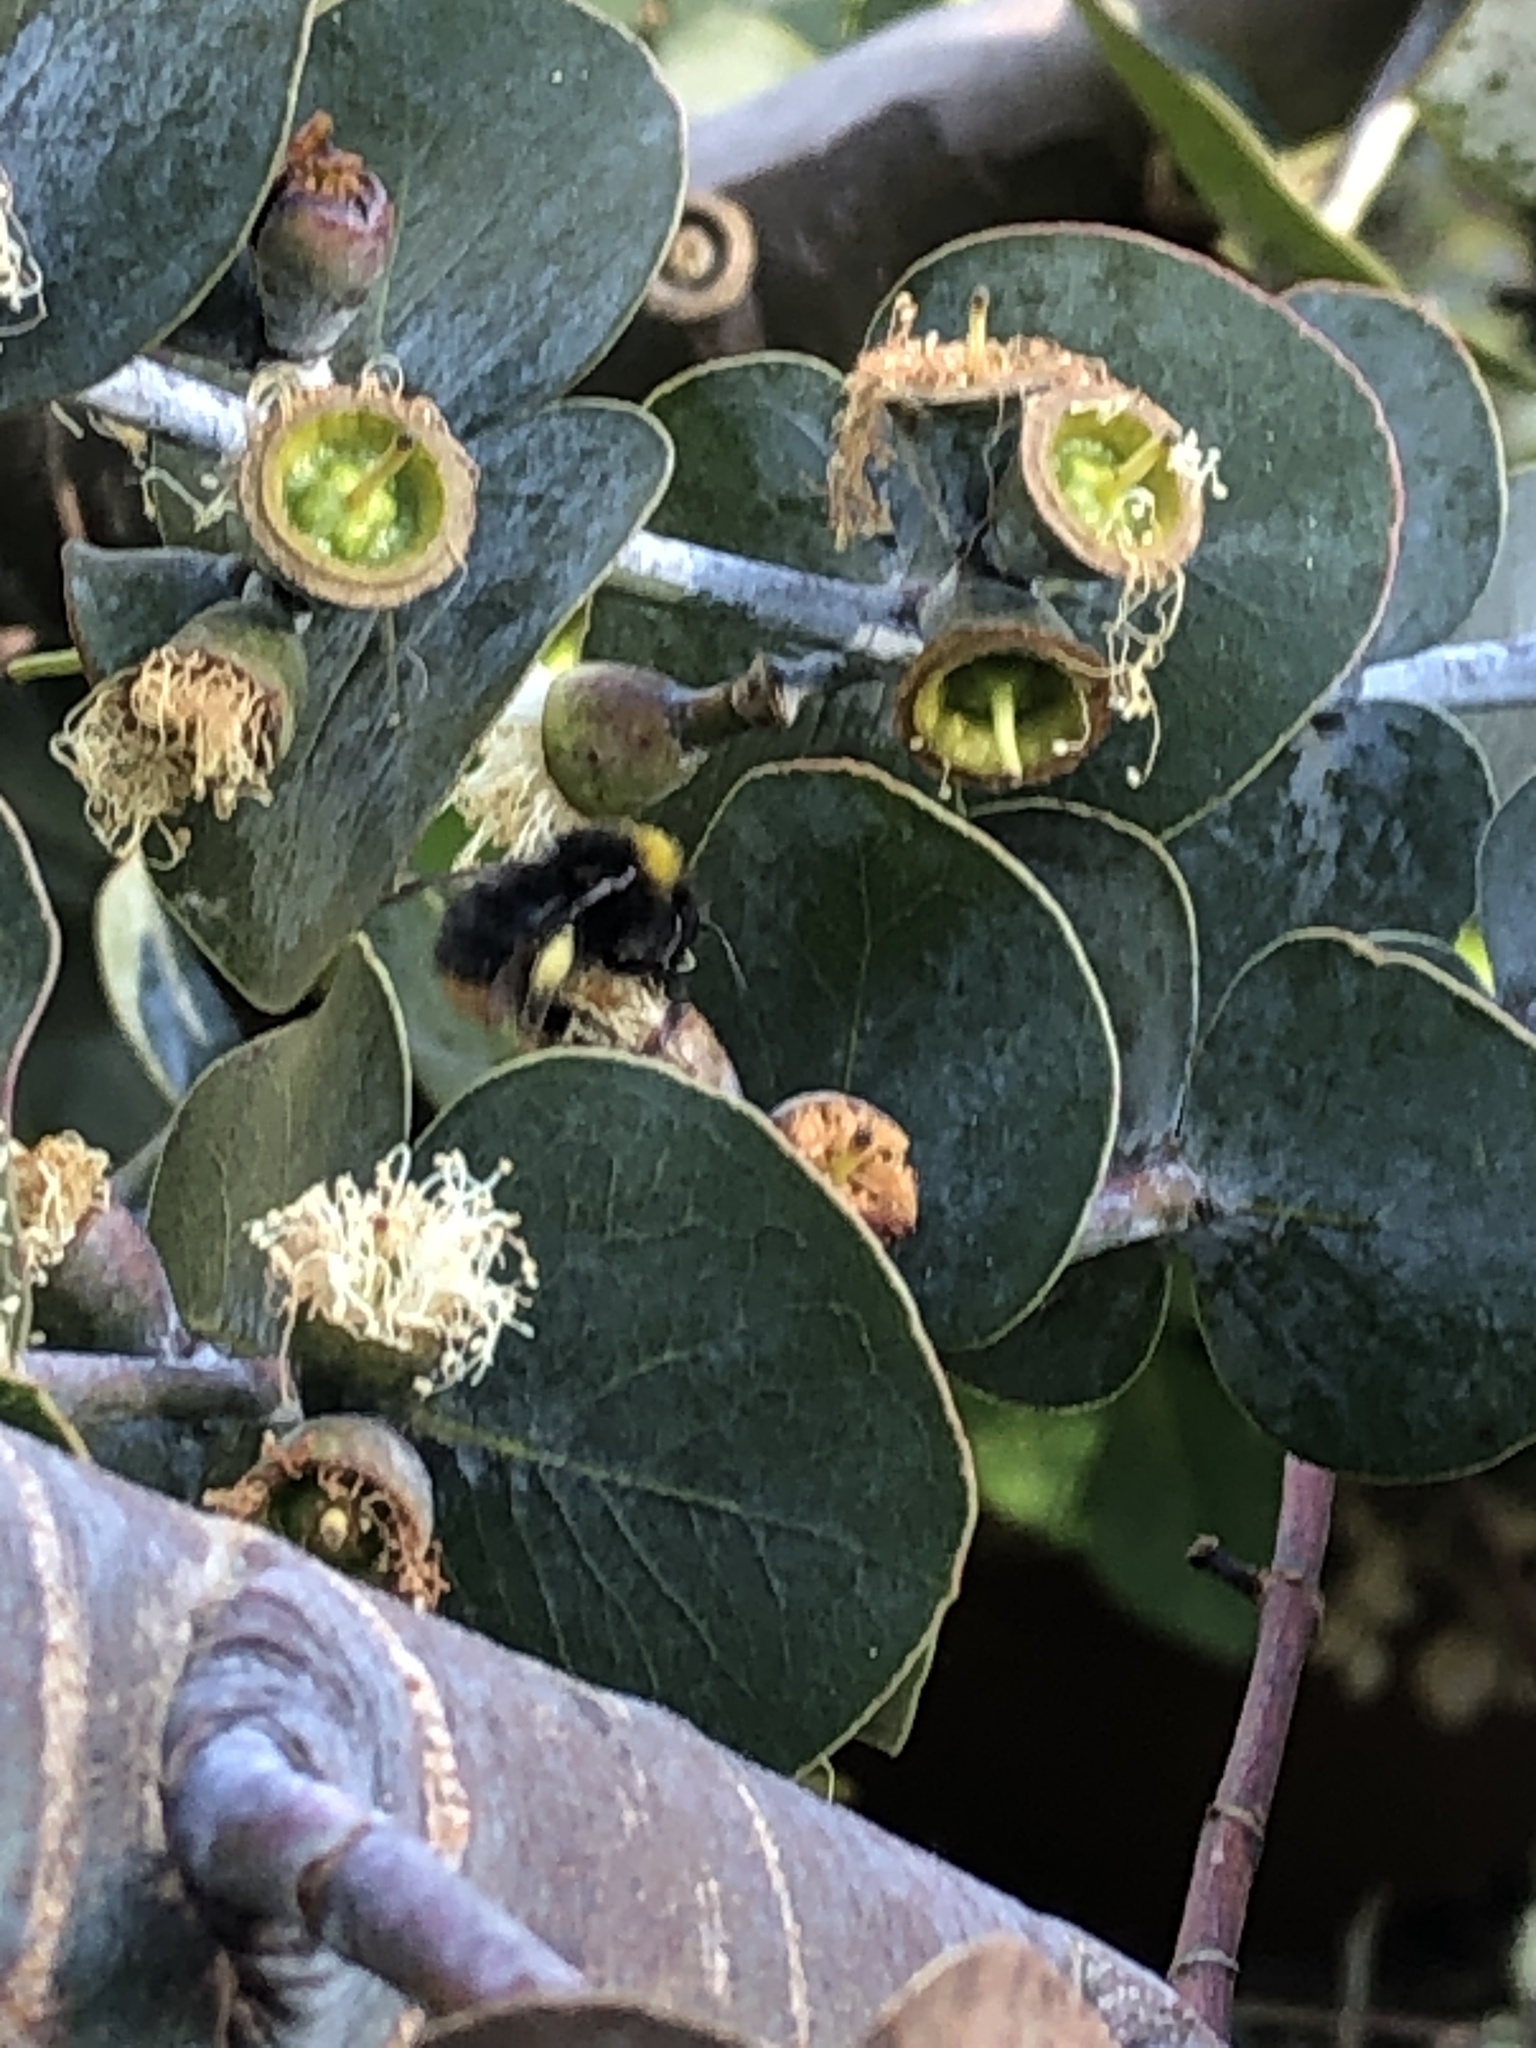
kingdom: Animalia
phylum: Arthropoda
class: Insecta
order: Hymenoptera
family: Apidae
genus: Bombus
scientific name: Bombus pratorum
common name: Early humble-bee
